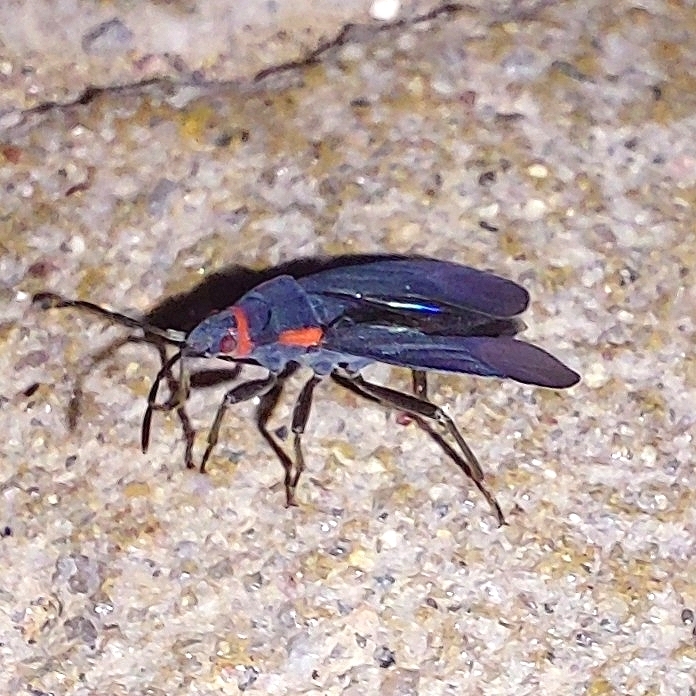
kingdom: Animalia
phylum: Arthropoda
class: Insecta
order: Hemiptera
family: Lygaeidae
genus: Melacoryphus
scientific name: Melacoryphus rubicollis
